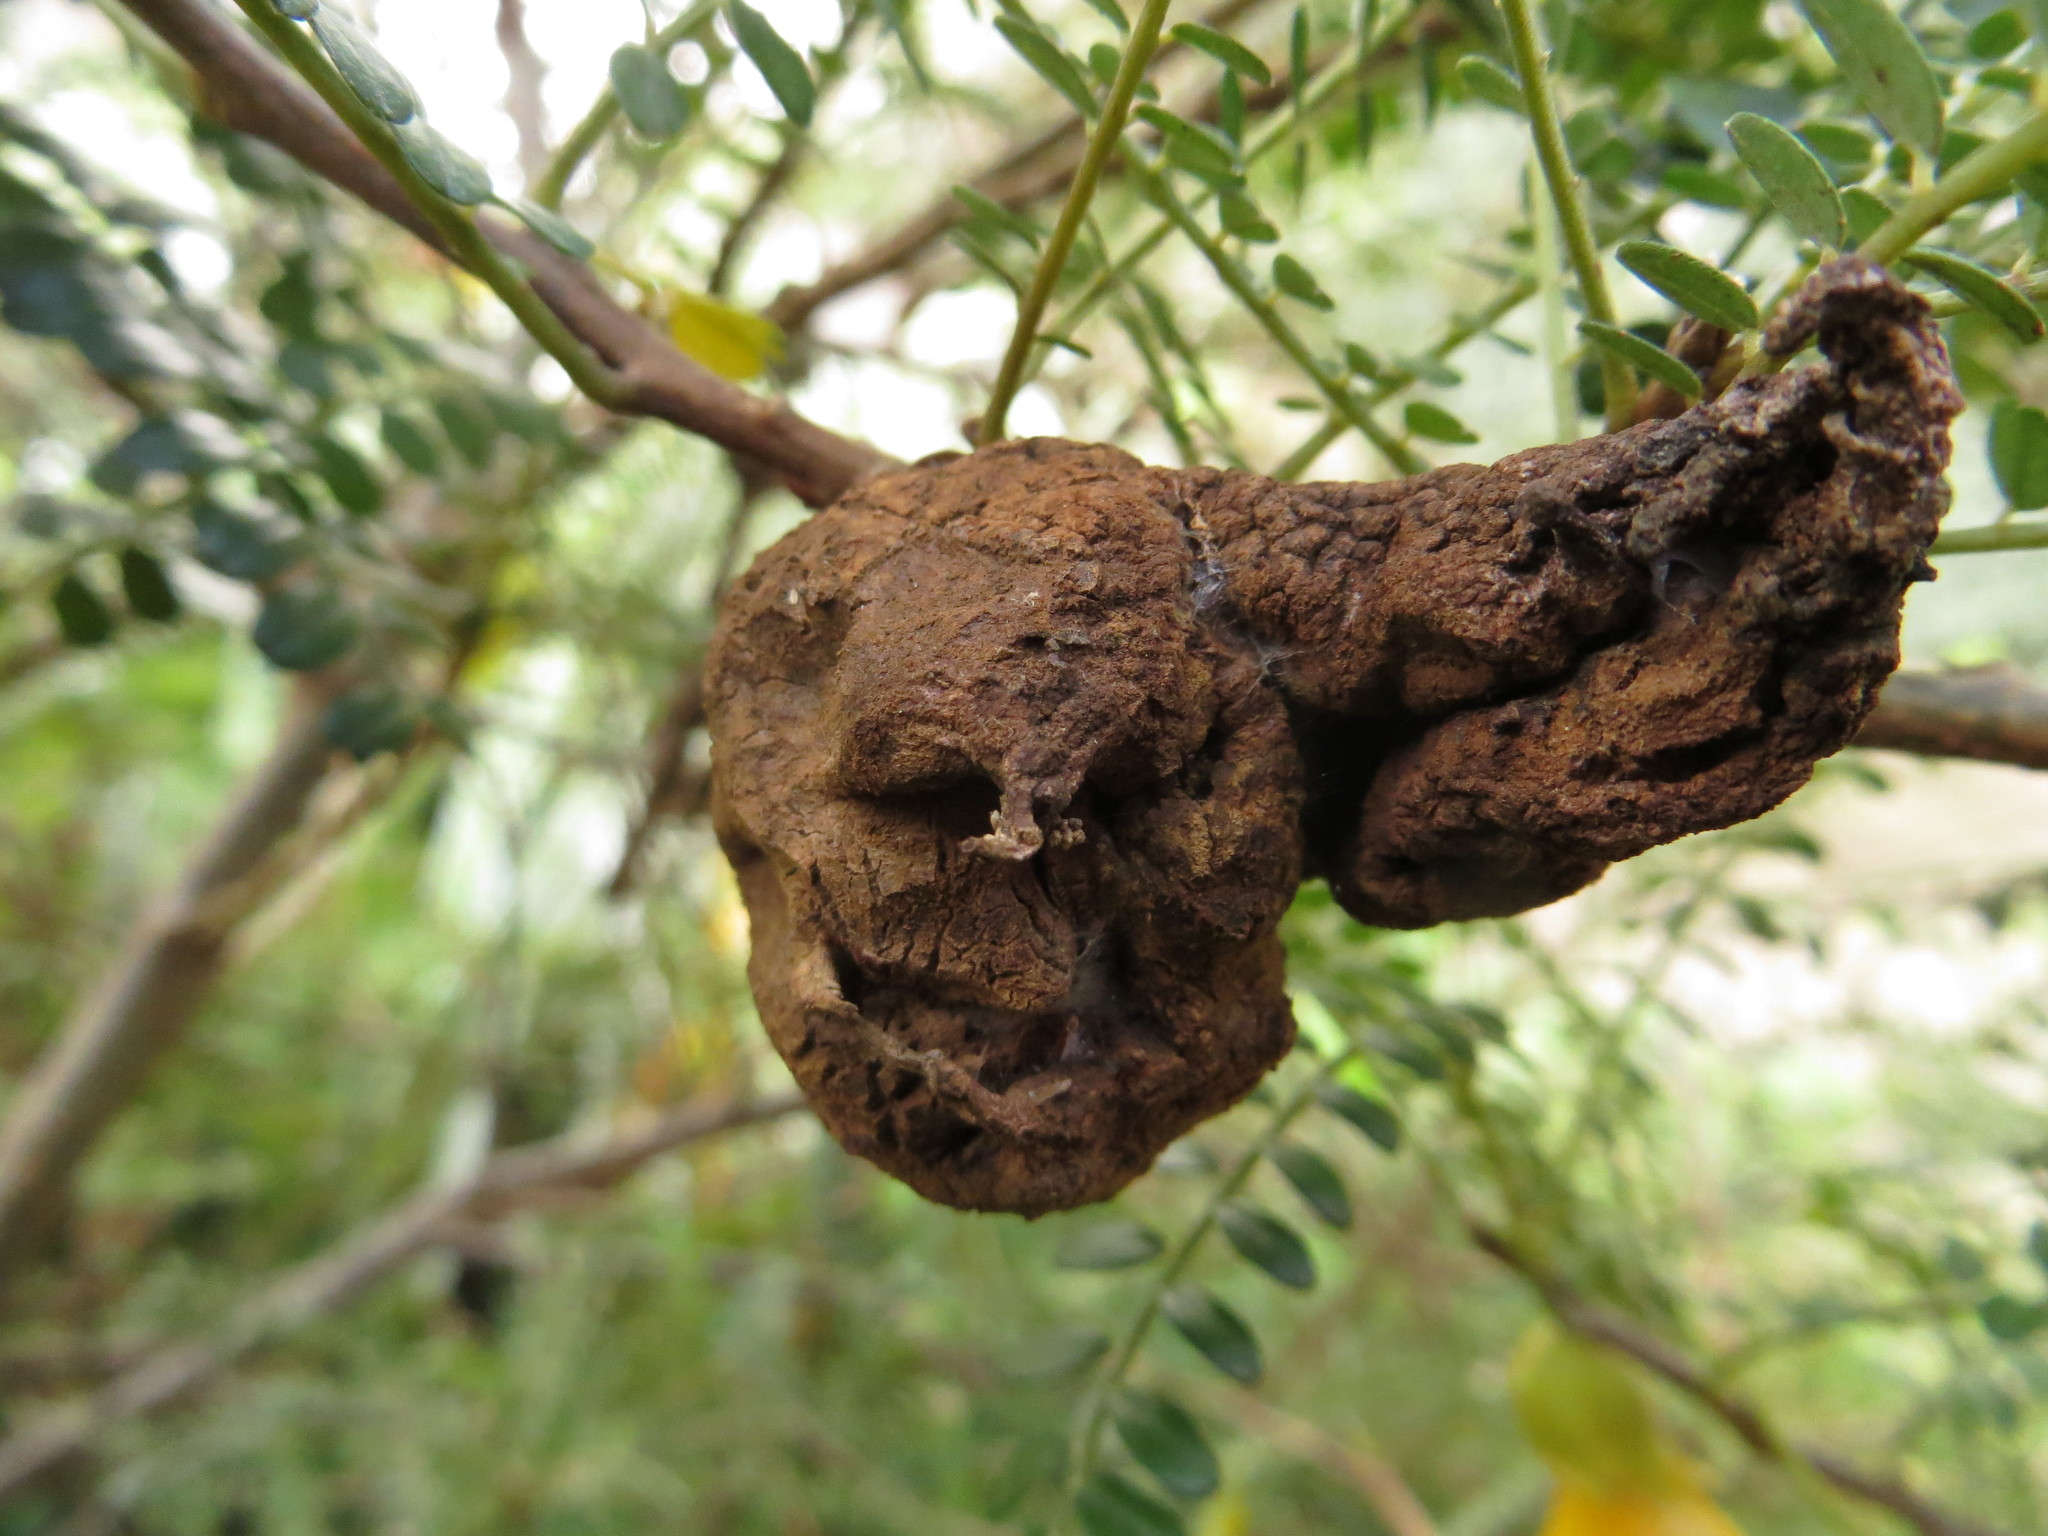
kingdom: Fungi
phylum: Basidiomycota
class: Pucciniomycetes
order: Pucciniales
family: Pucciniaceae
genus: Uromyces
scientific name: Uromyces edwardsiae
